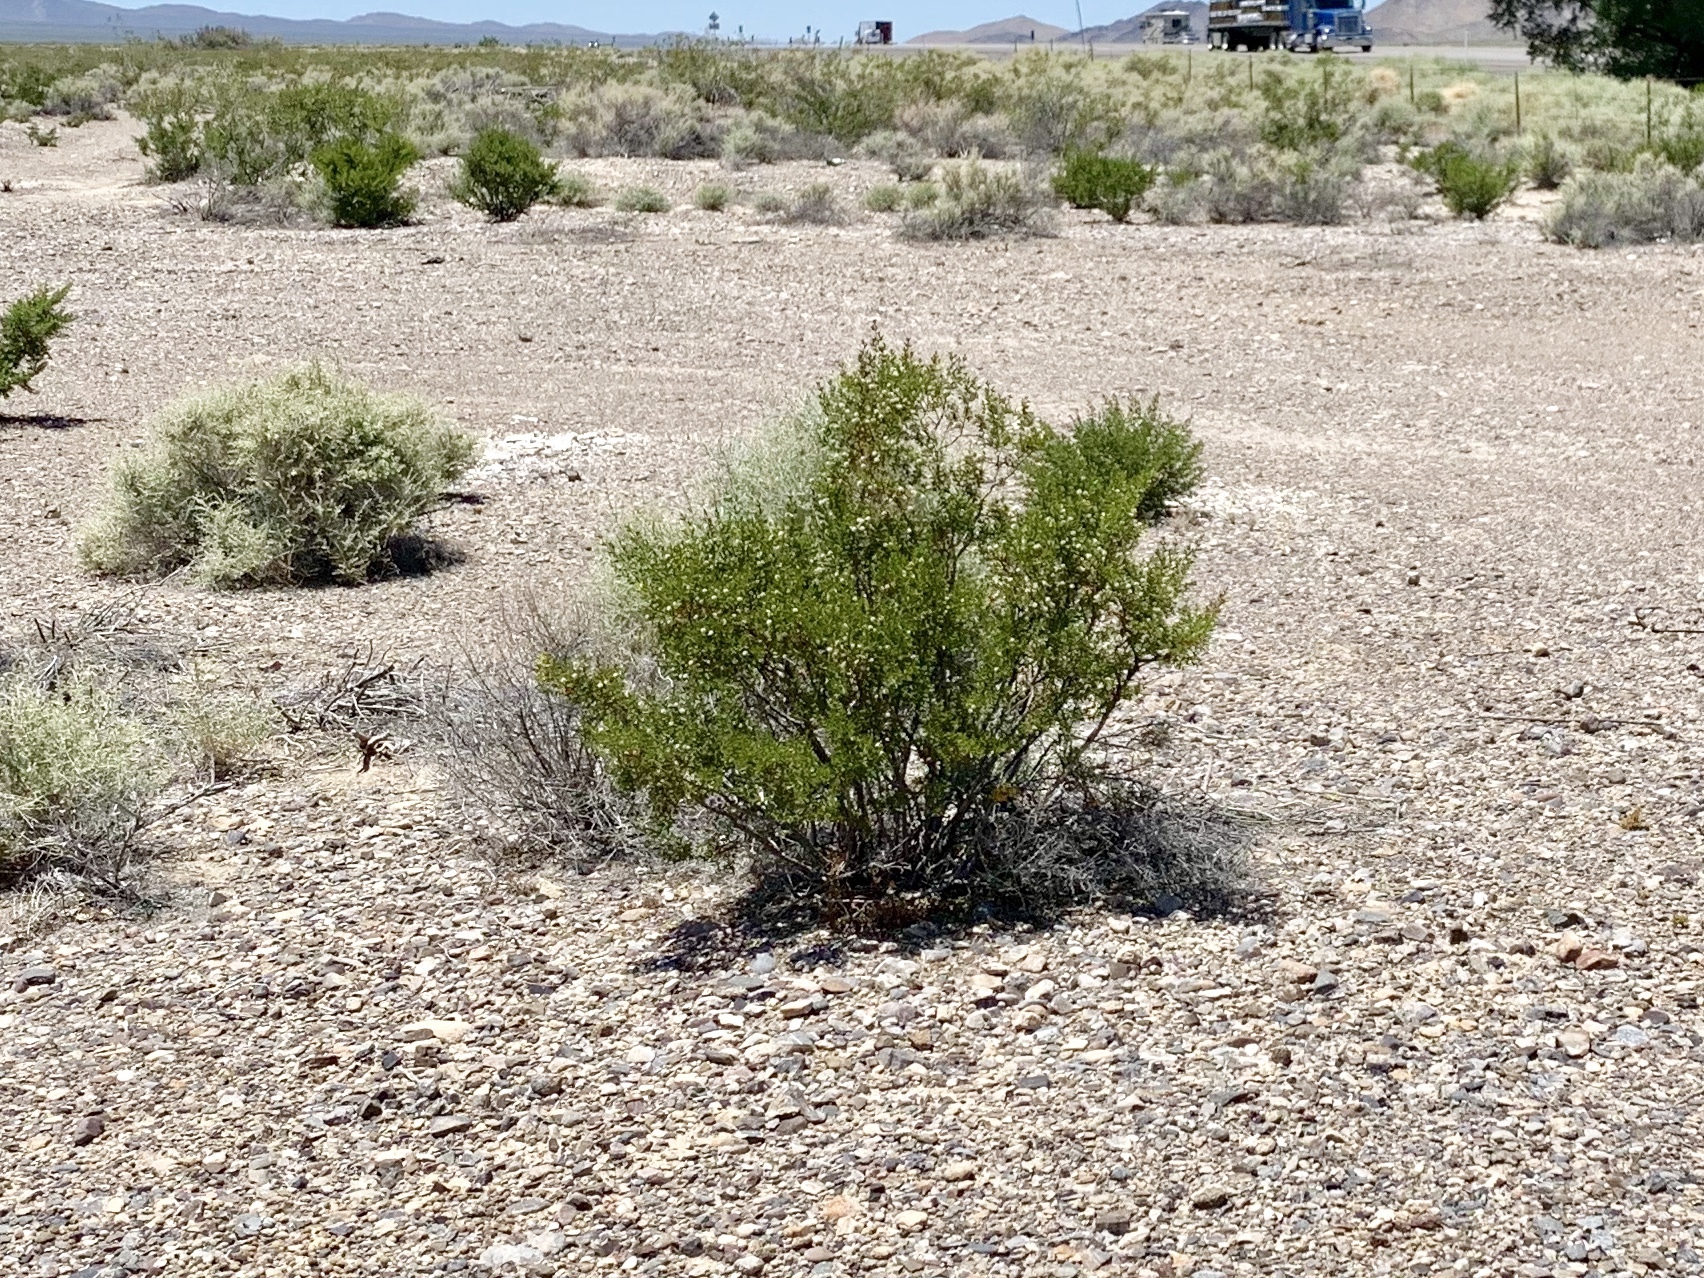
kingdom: Plantae
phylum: Tracheophyta
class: Magnoliopsida
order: Zygophyllales
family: Zygophyllaceae
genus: Larrea
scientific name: Larrea tridentata
